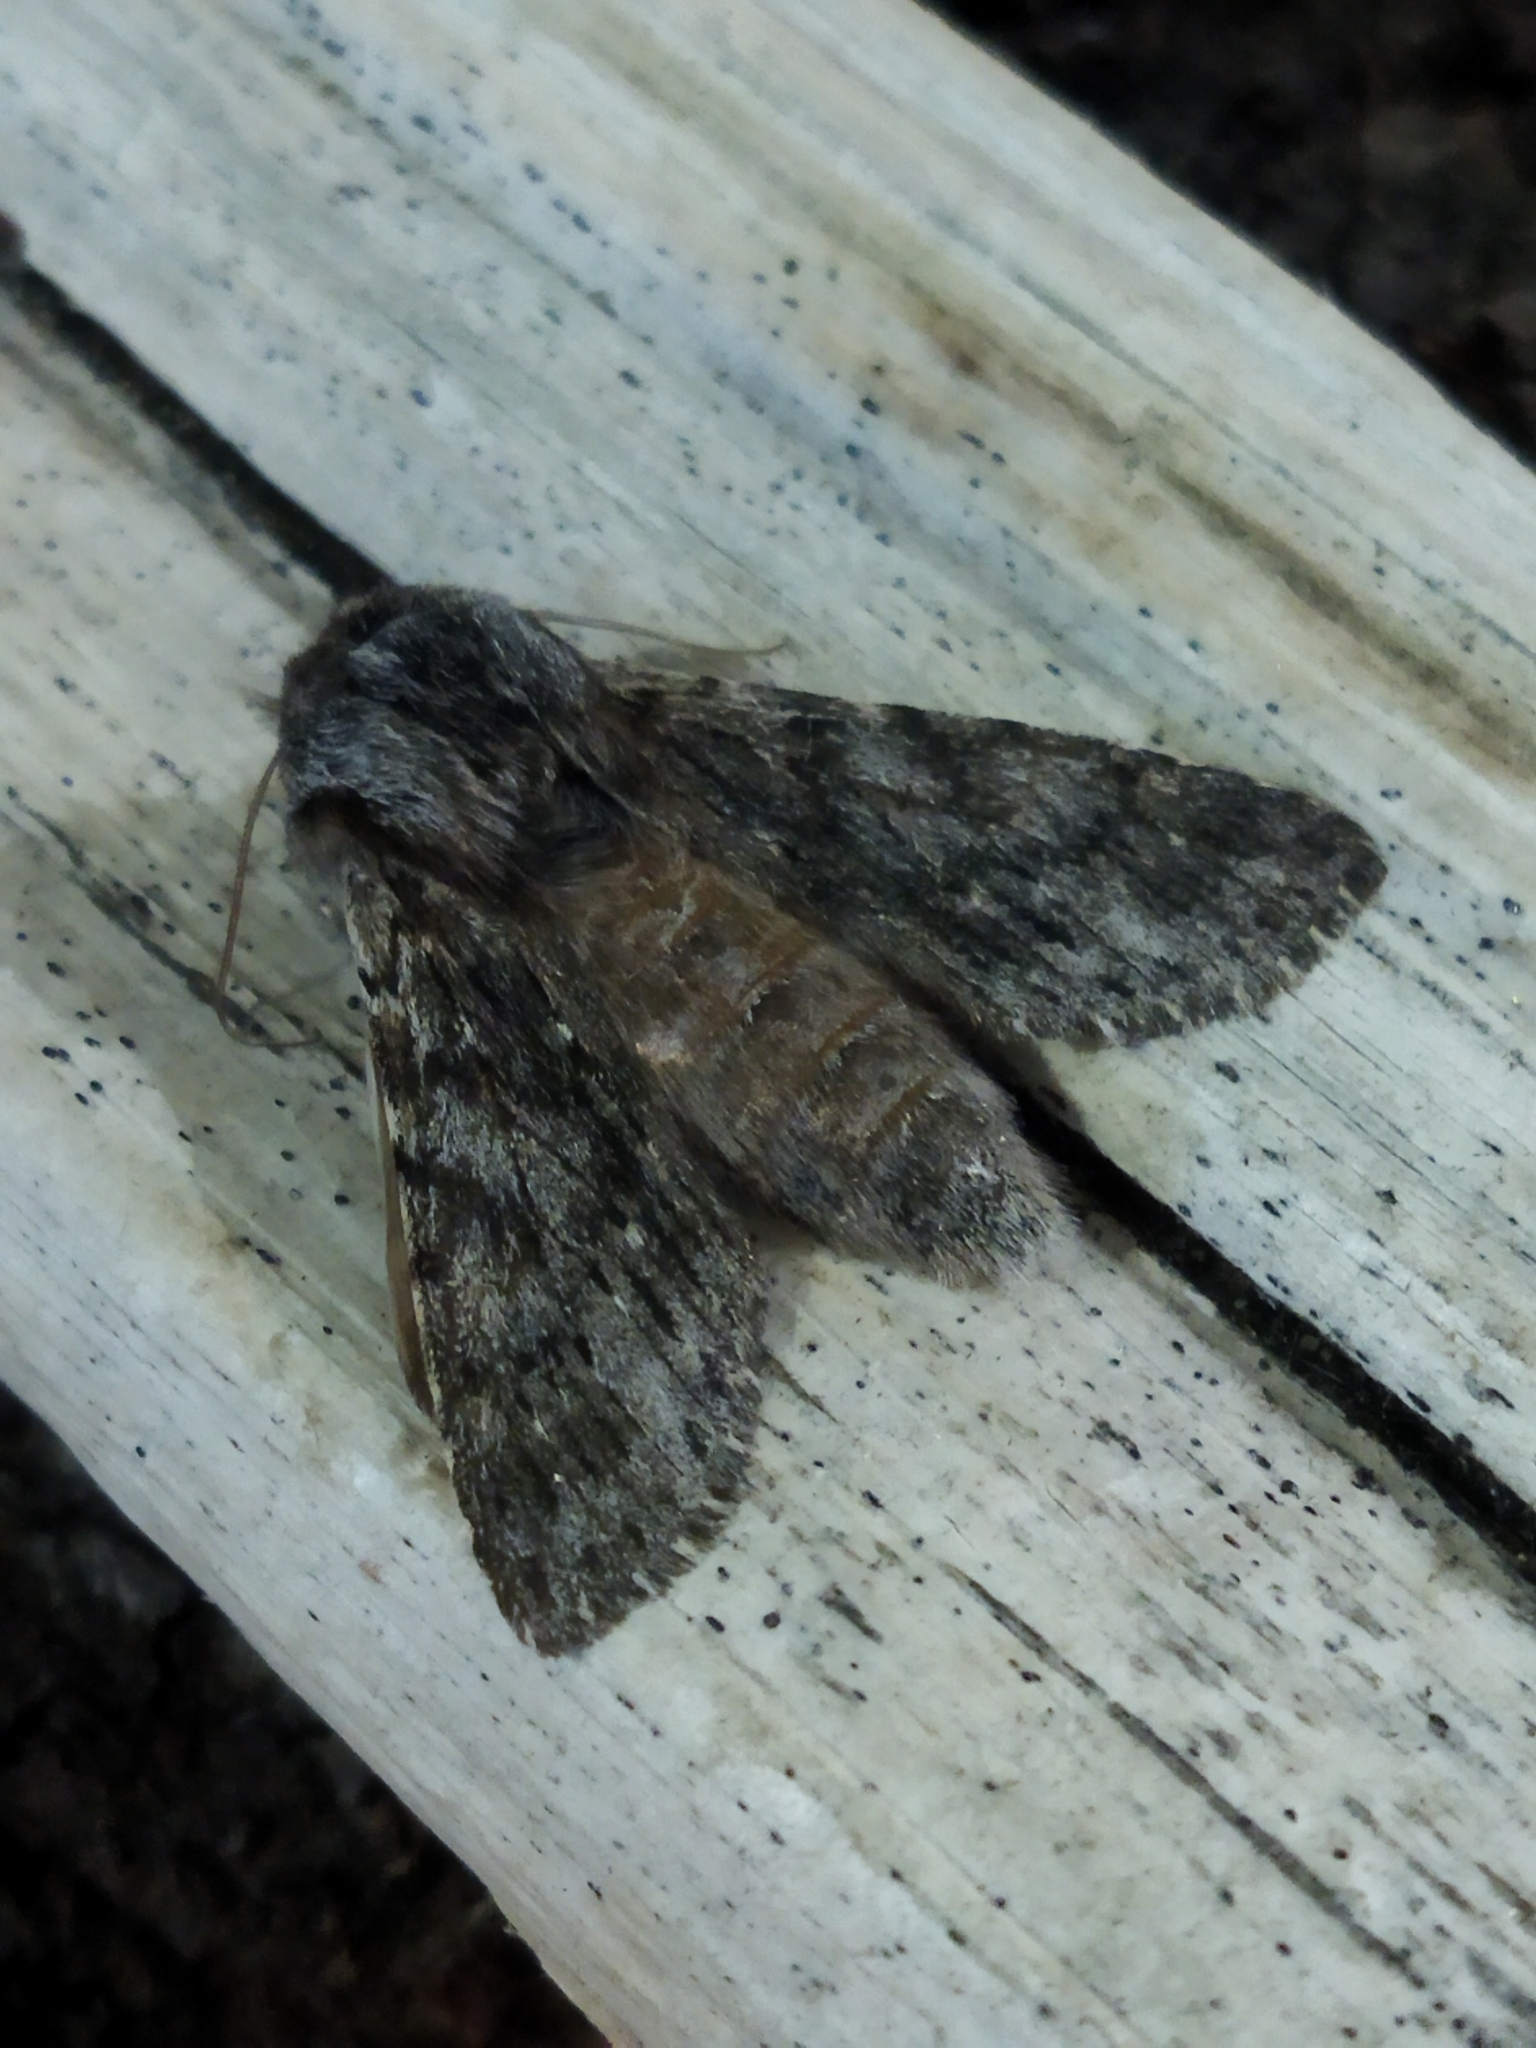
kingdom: Animalia
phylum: Arthropoda
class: Insecta
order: Lepidoptera
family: Notodontidae
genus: Dicranura
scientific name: Dicranura ulmi
